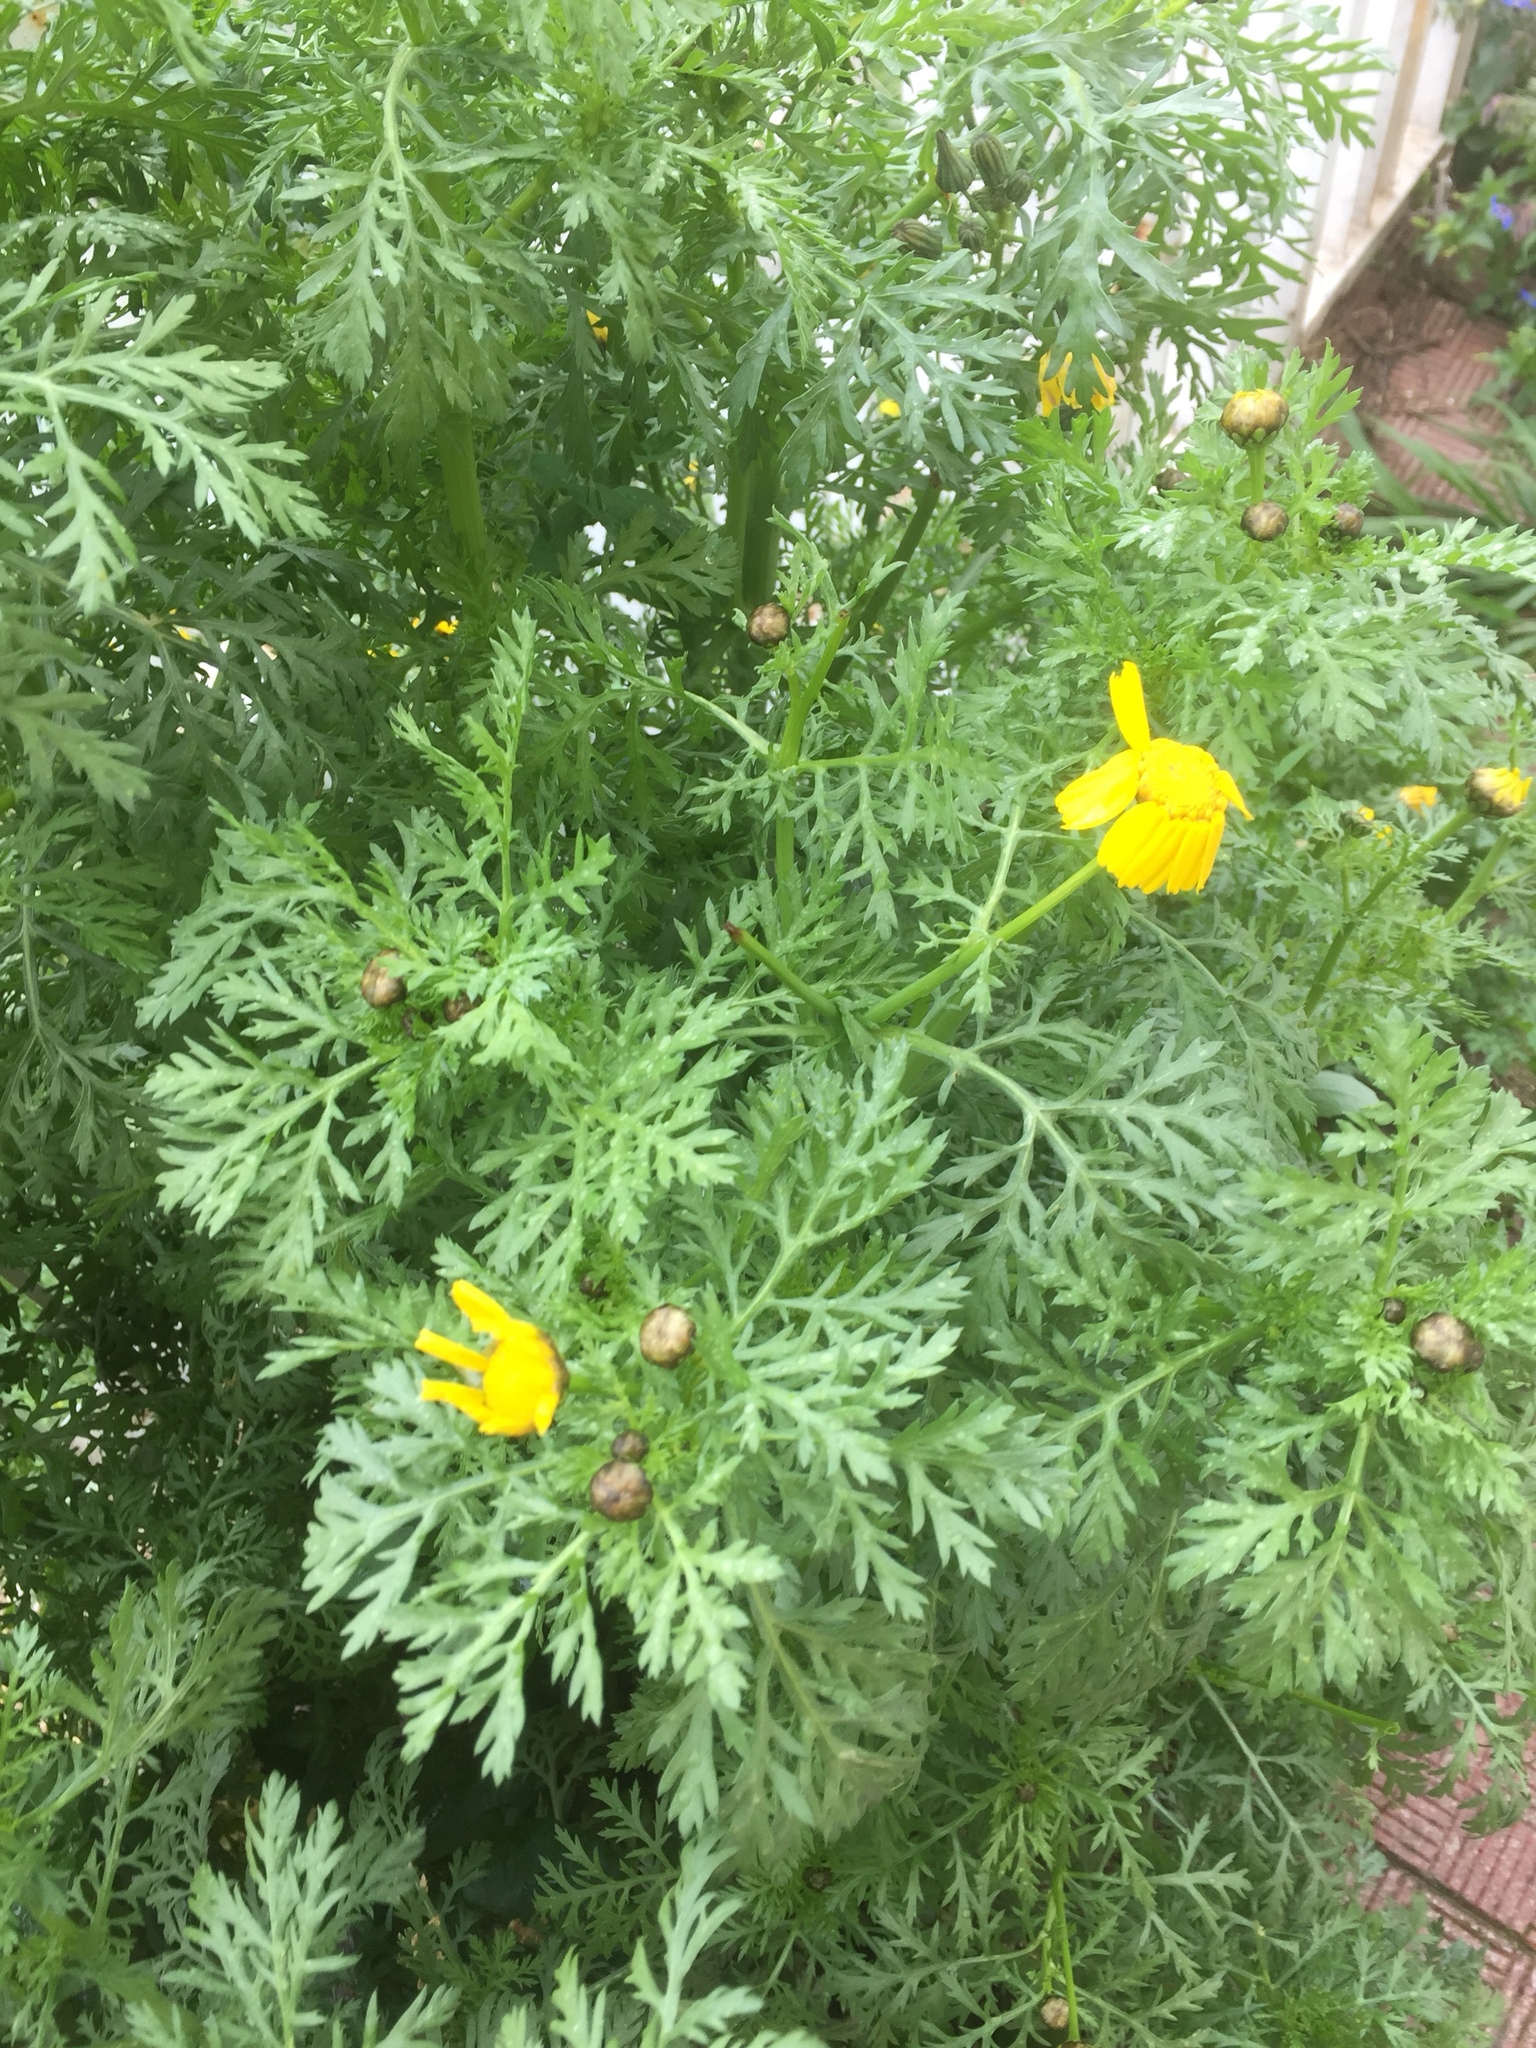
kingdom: Plantae
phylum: Tracheophyta
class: Magnoliopsida
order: Asterales
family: Asteraceae
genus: Glebionis
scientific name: Glebionis coronaria
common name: Crowndaisy
